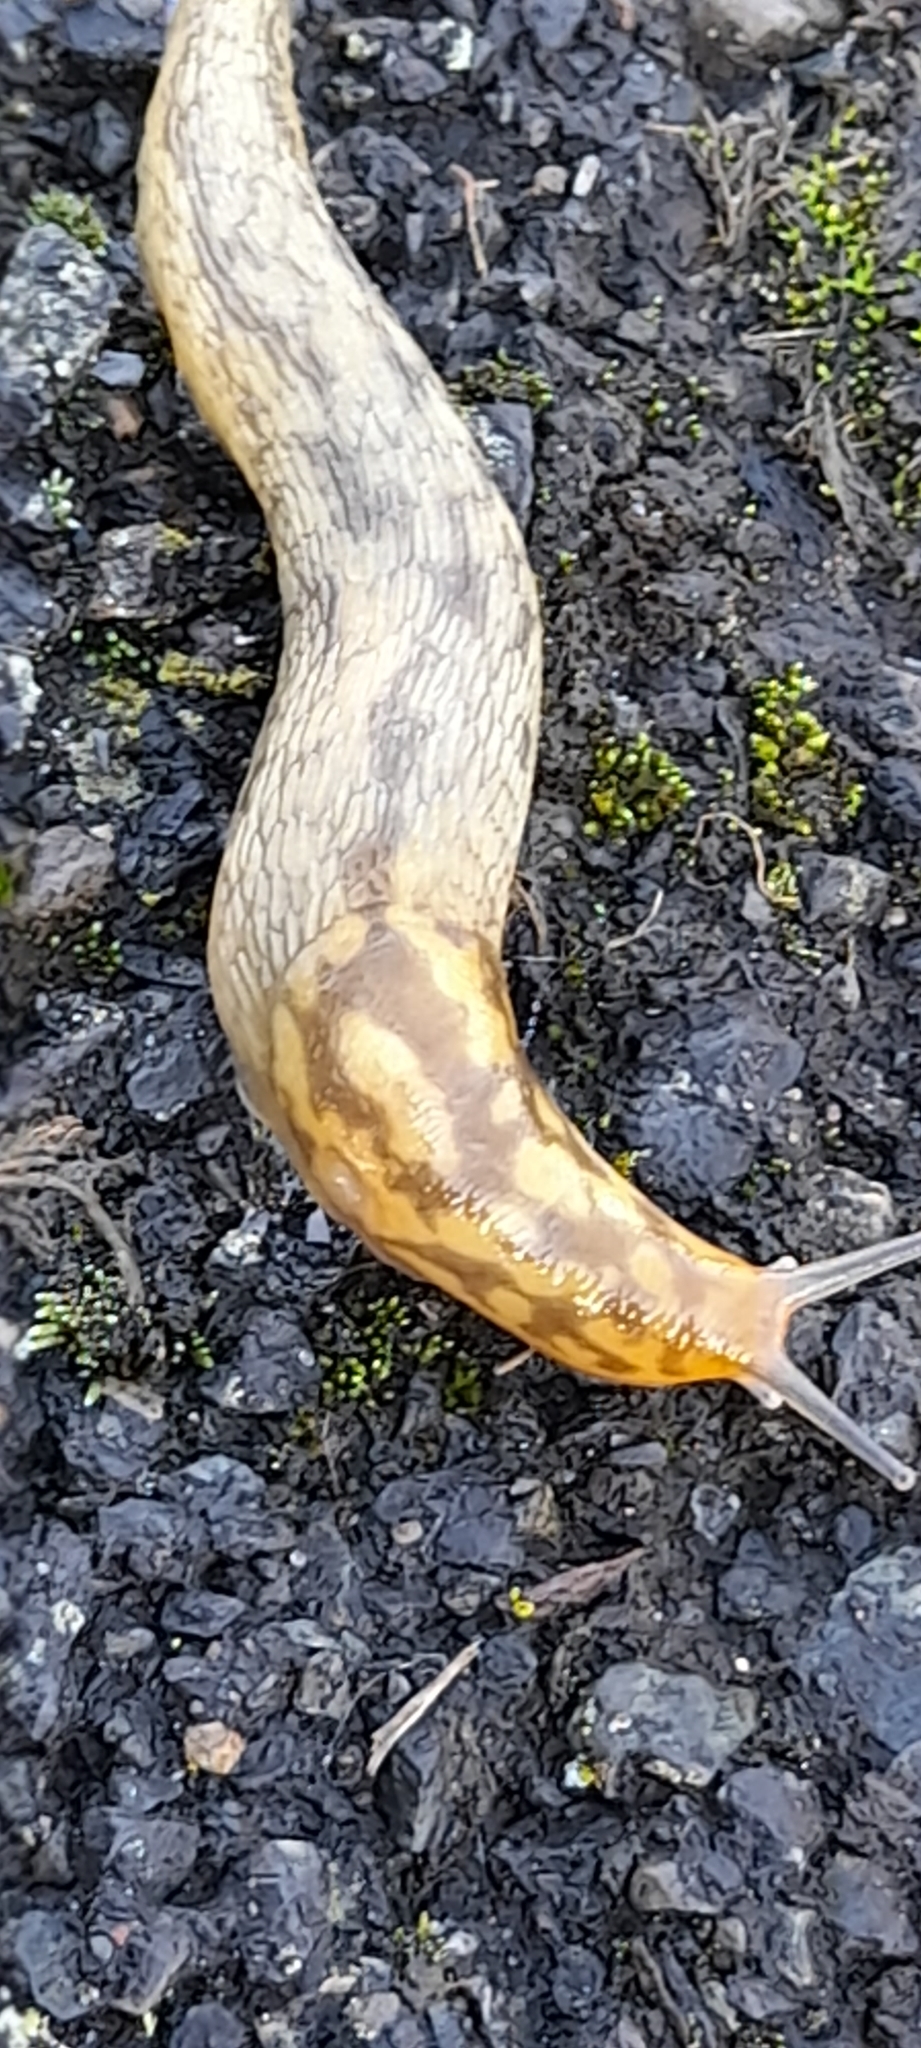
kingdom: Animalia
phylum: Mollusca
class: Gastropoda
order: Stylommatophora
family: Limacidae
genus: Limacus
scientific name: Limacus maculatus
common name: Irish yellow slug
